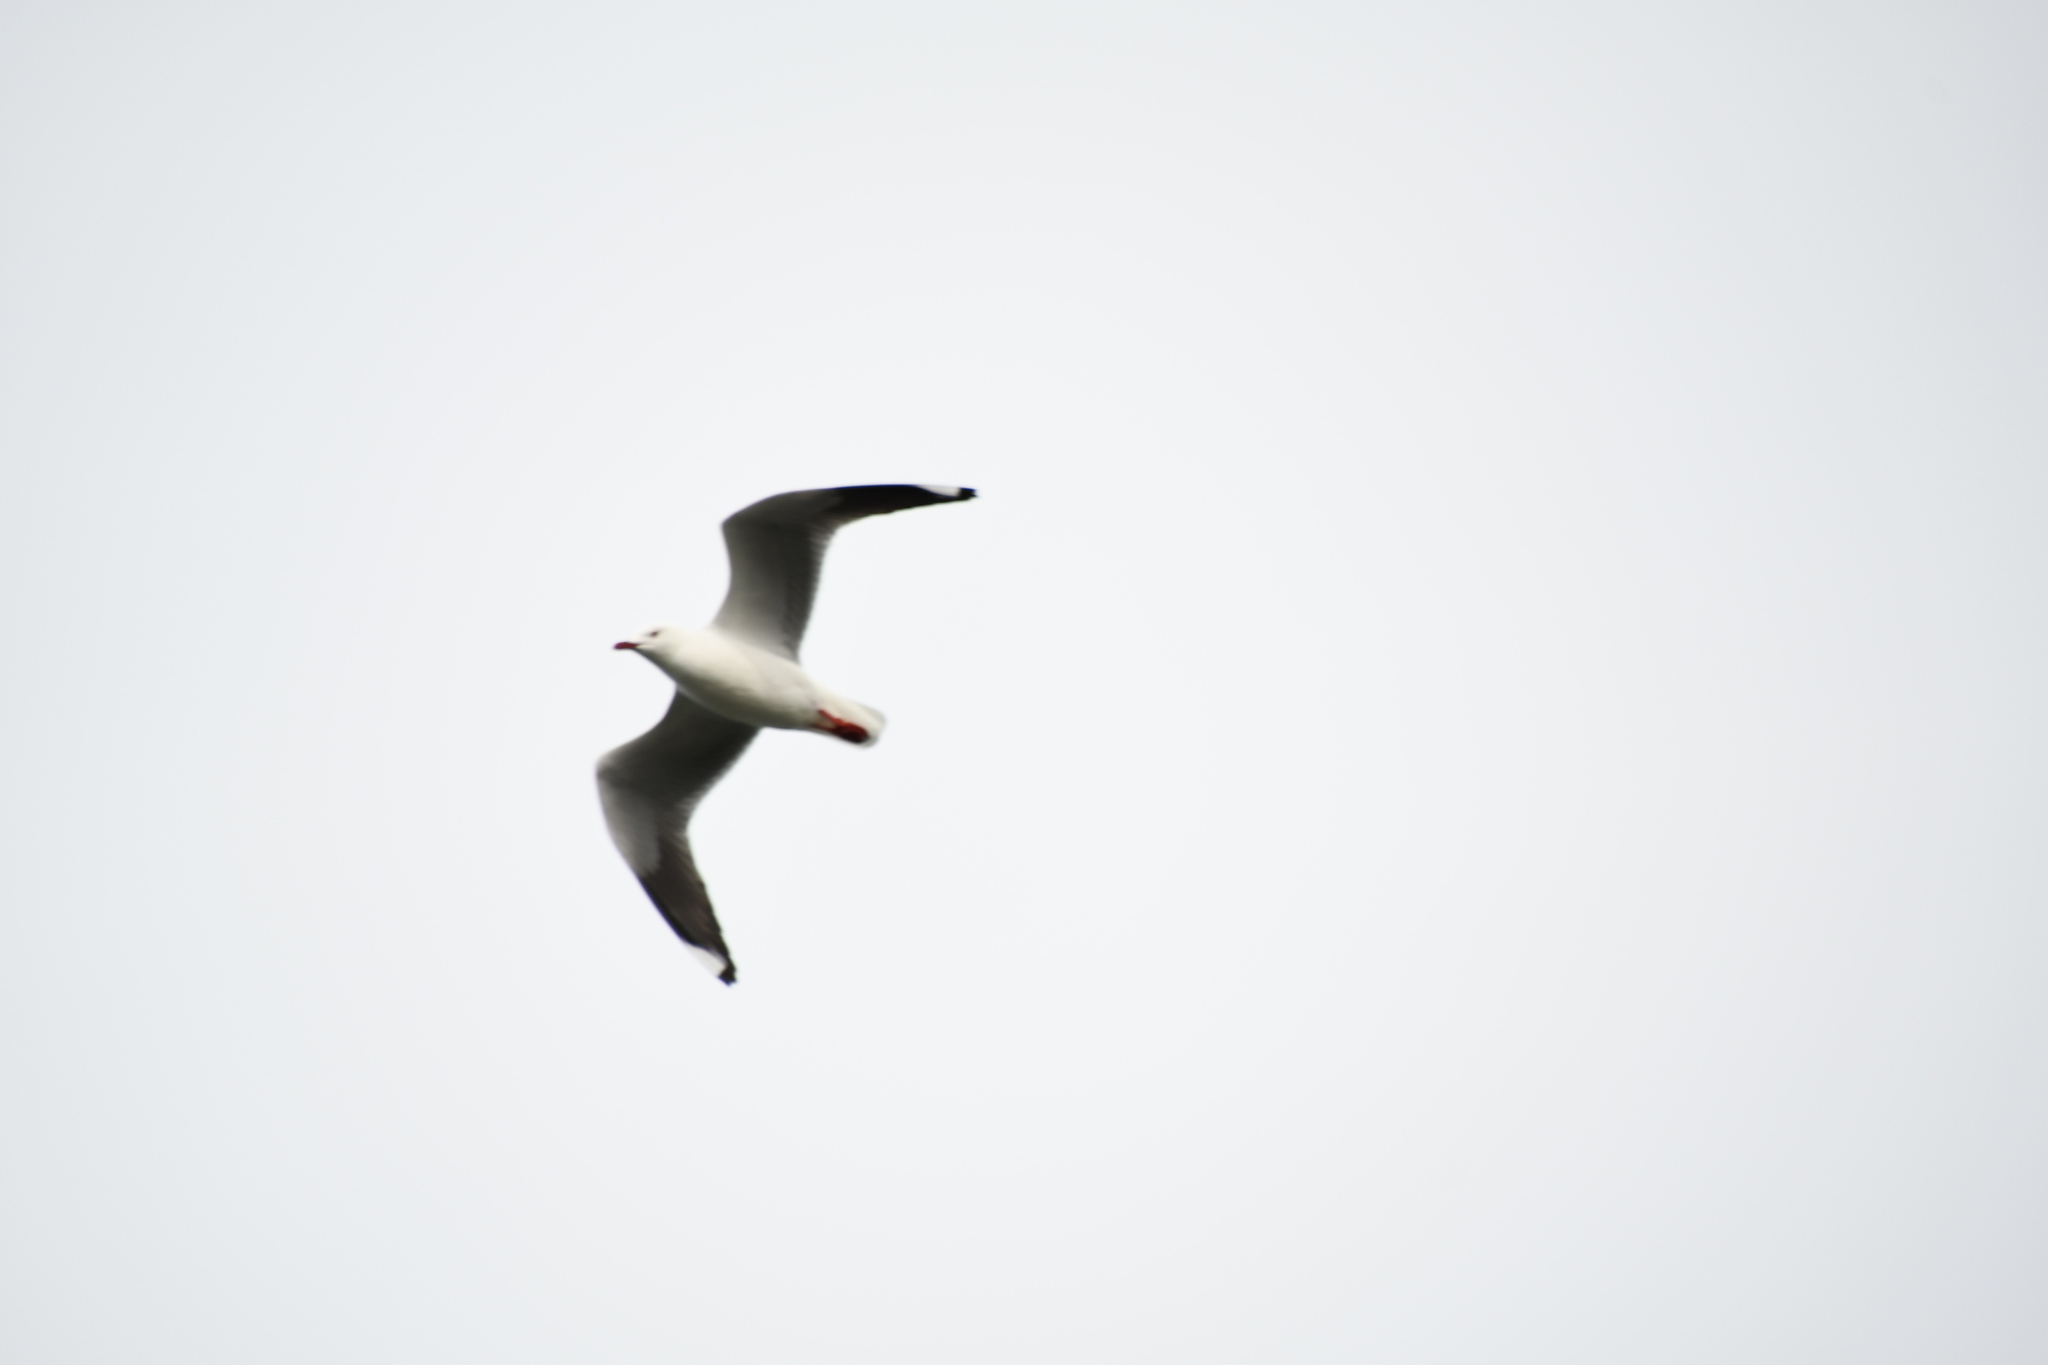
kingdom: Animalia
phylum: Chordata
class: Aves
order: Charadriiformes
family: Laridae
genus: Chroicocephalus
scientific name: Chroicocephalus novaehollandiae
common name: Silver gull
